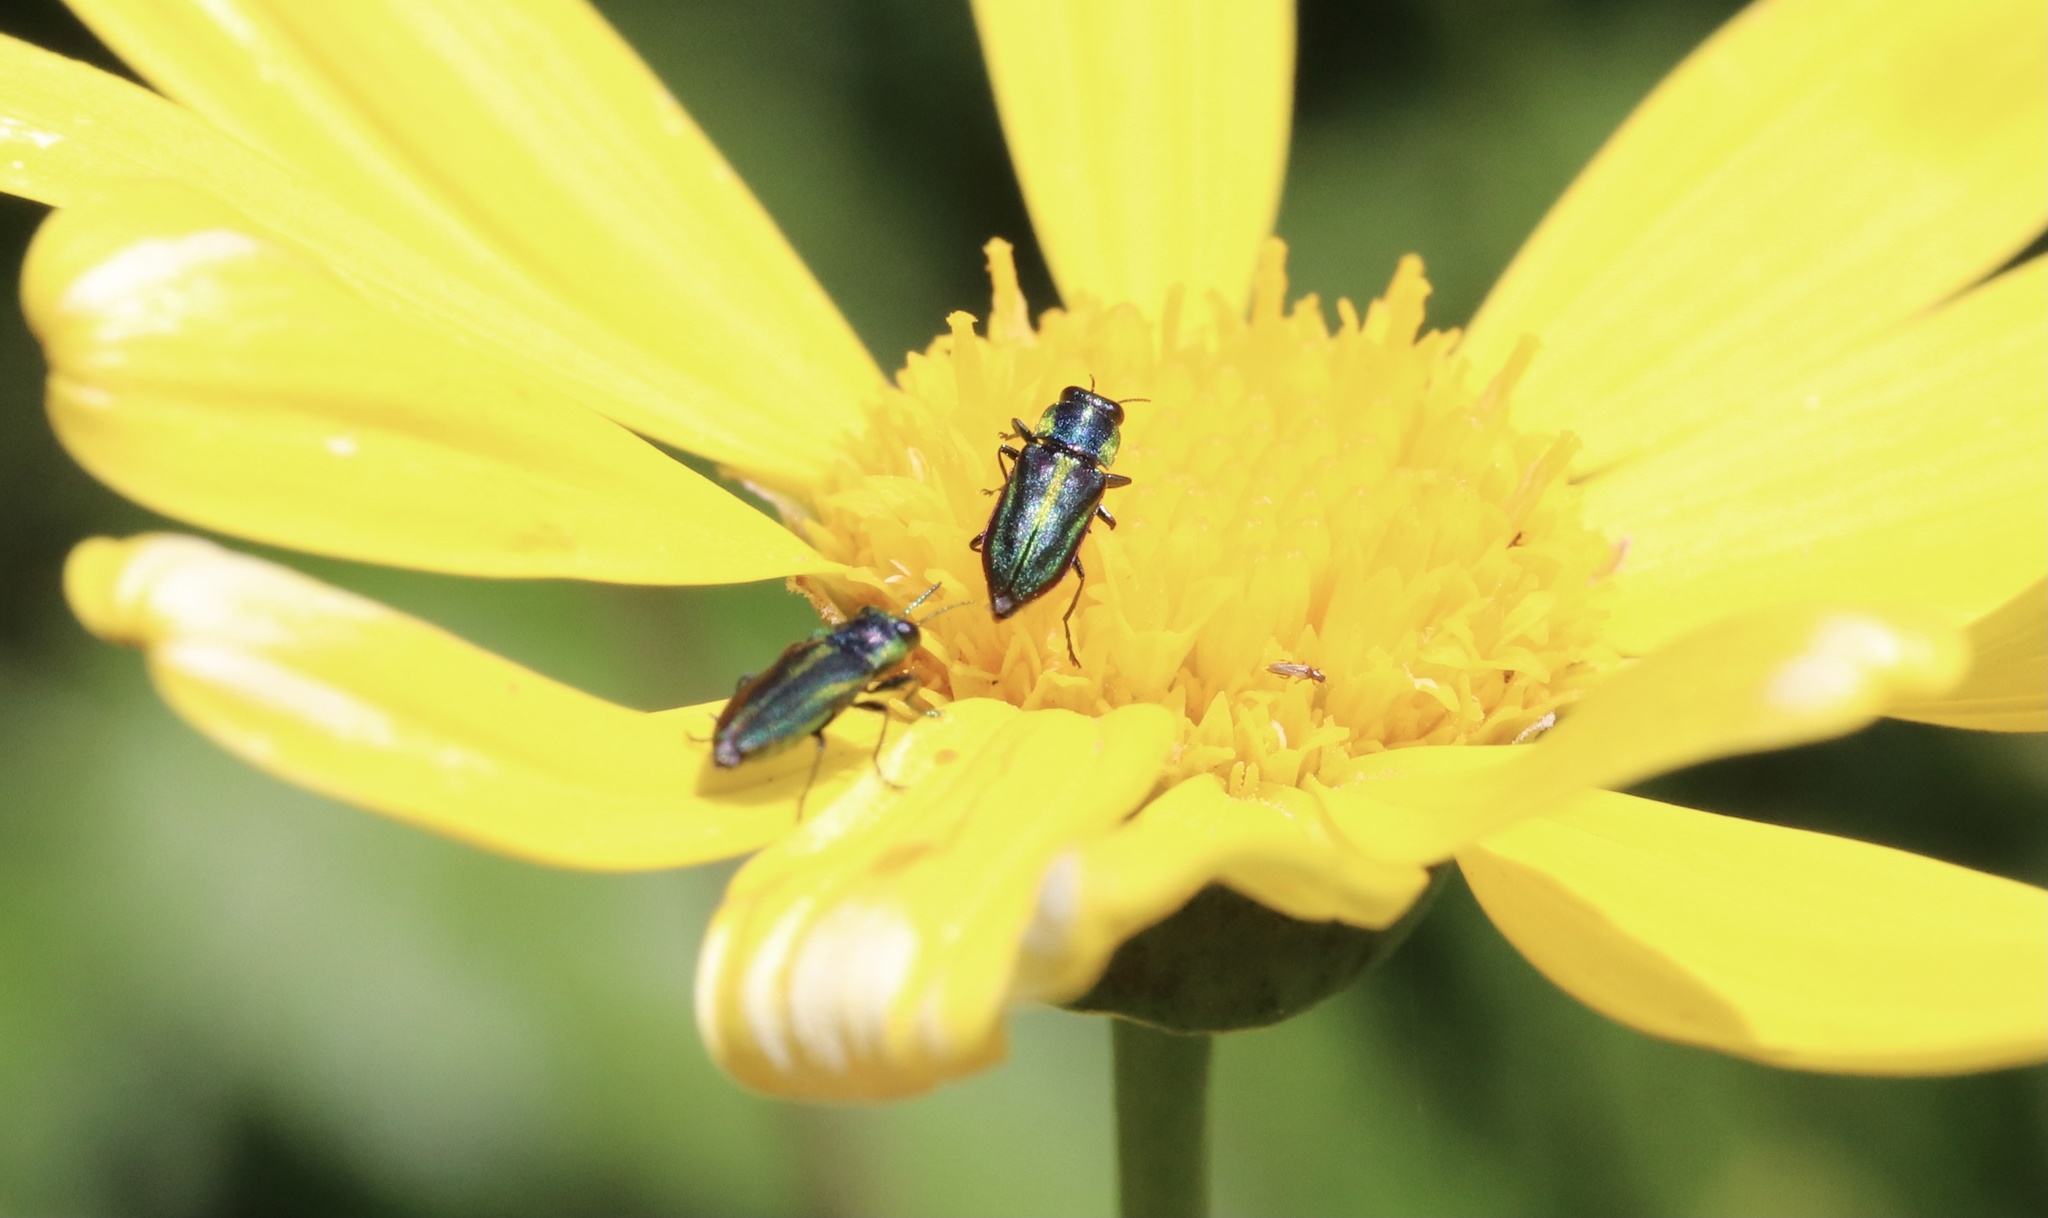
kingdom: Animalia
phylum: Arthropoda
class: Insecta
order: Coleoptera
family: Buprestidae
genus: Bilyaxia
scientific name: Bilyaxia concinna
